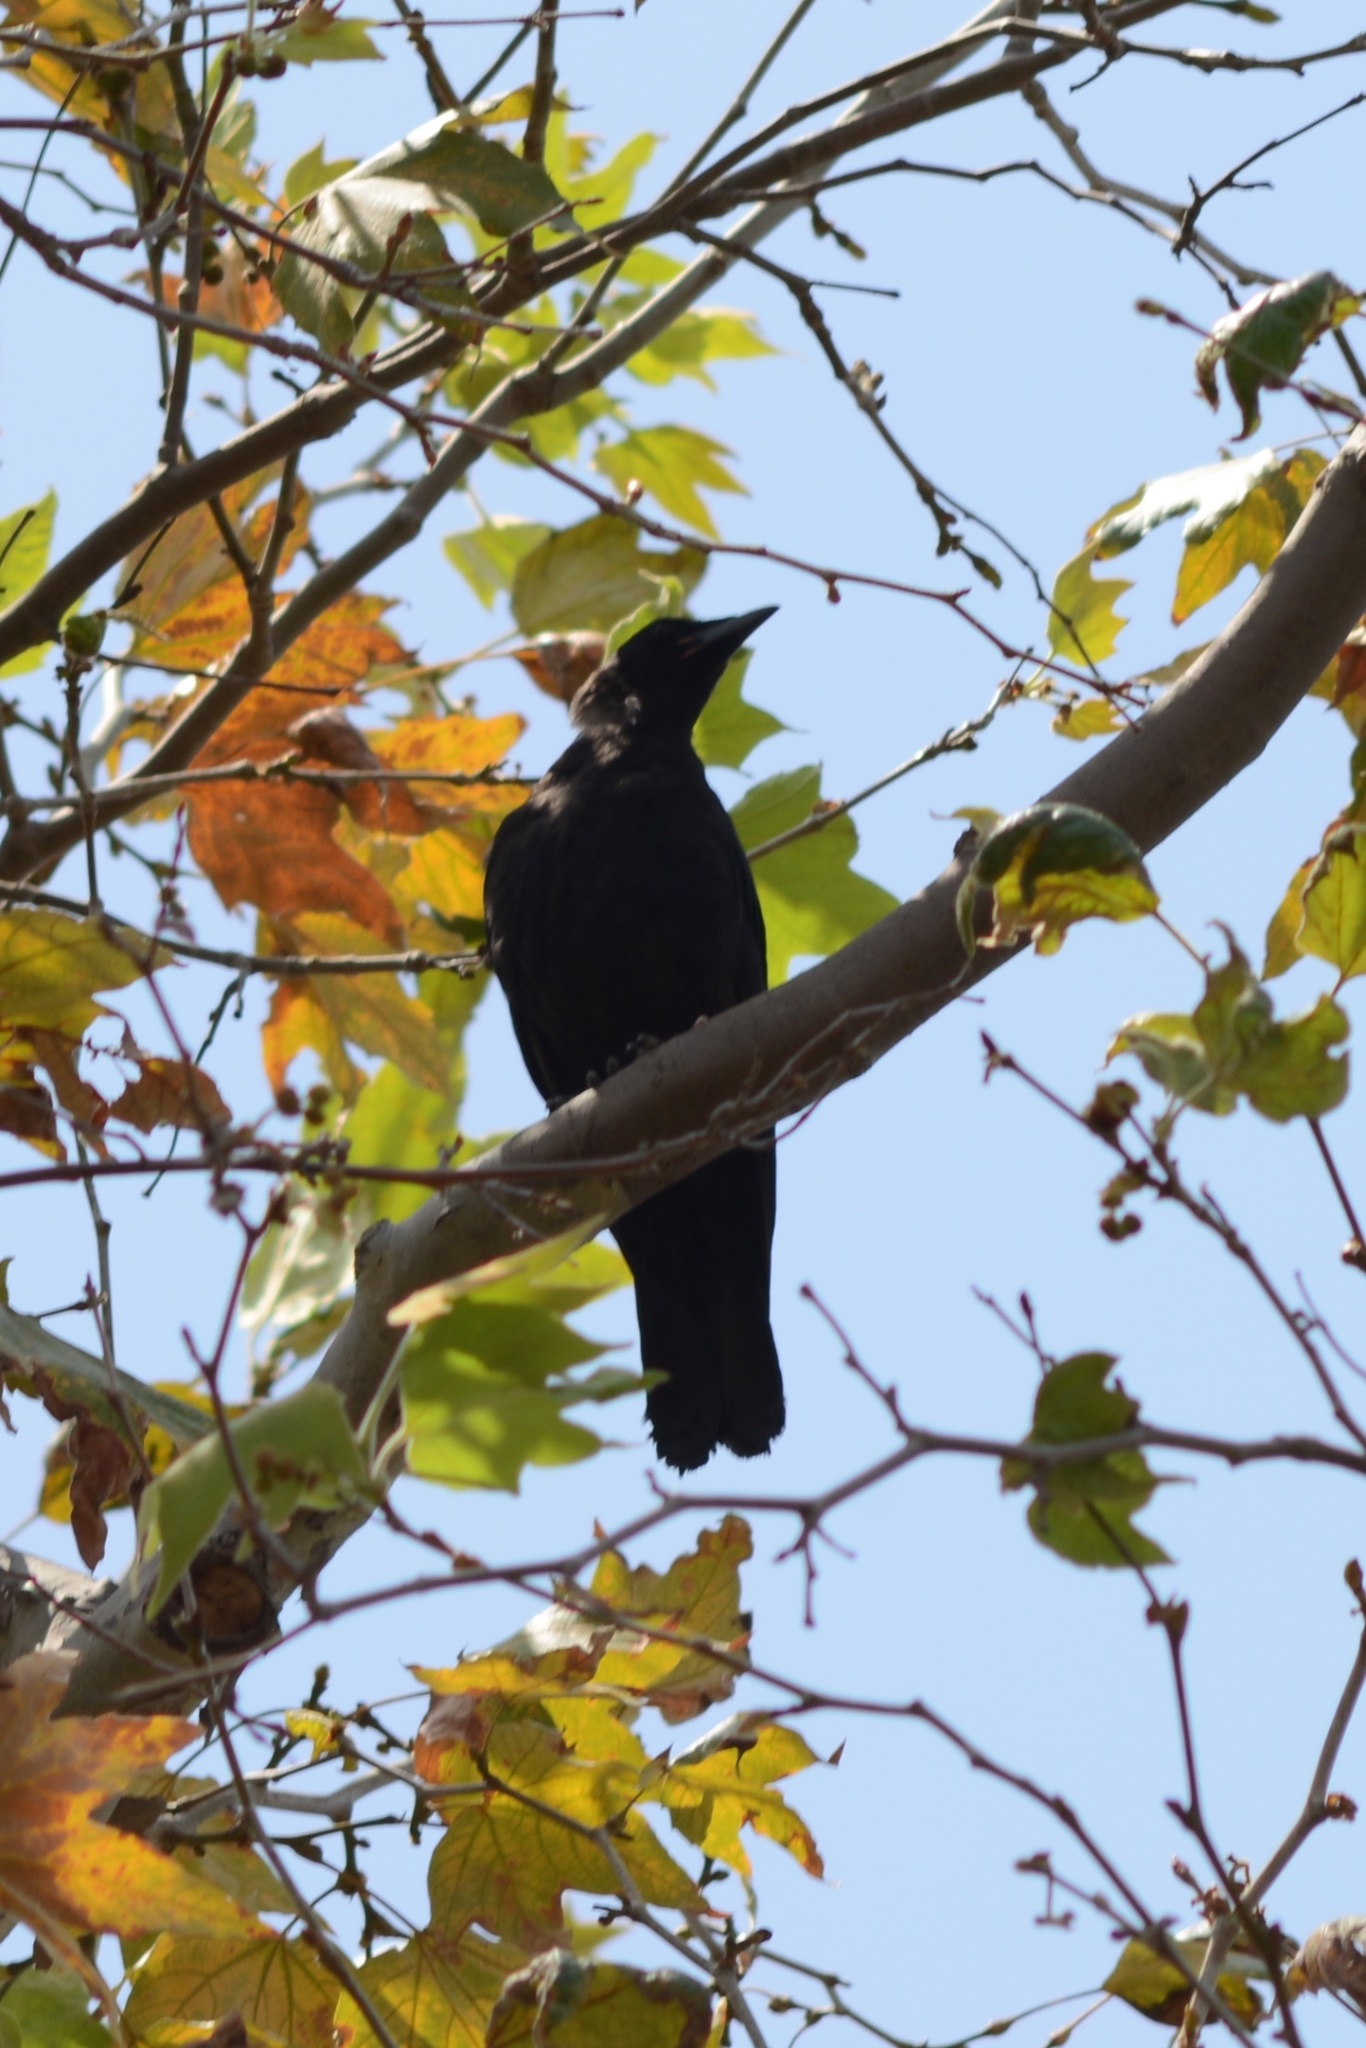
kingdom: Animalia
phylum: Chordata
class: Aves
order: Passeriformes
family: Corvidae
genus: Corvus
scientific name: Corvus brachyrhynchos
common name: American crow
